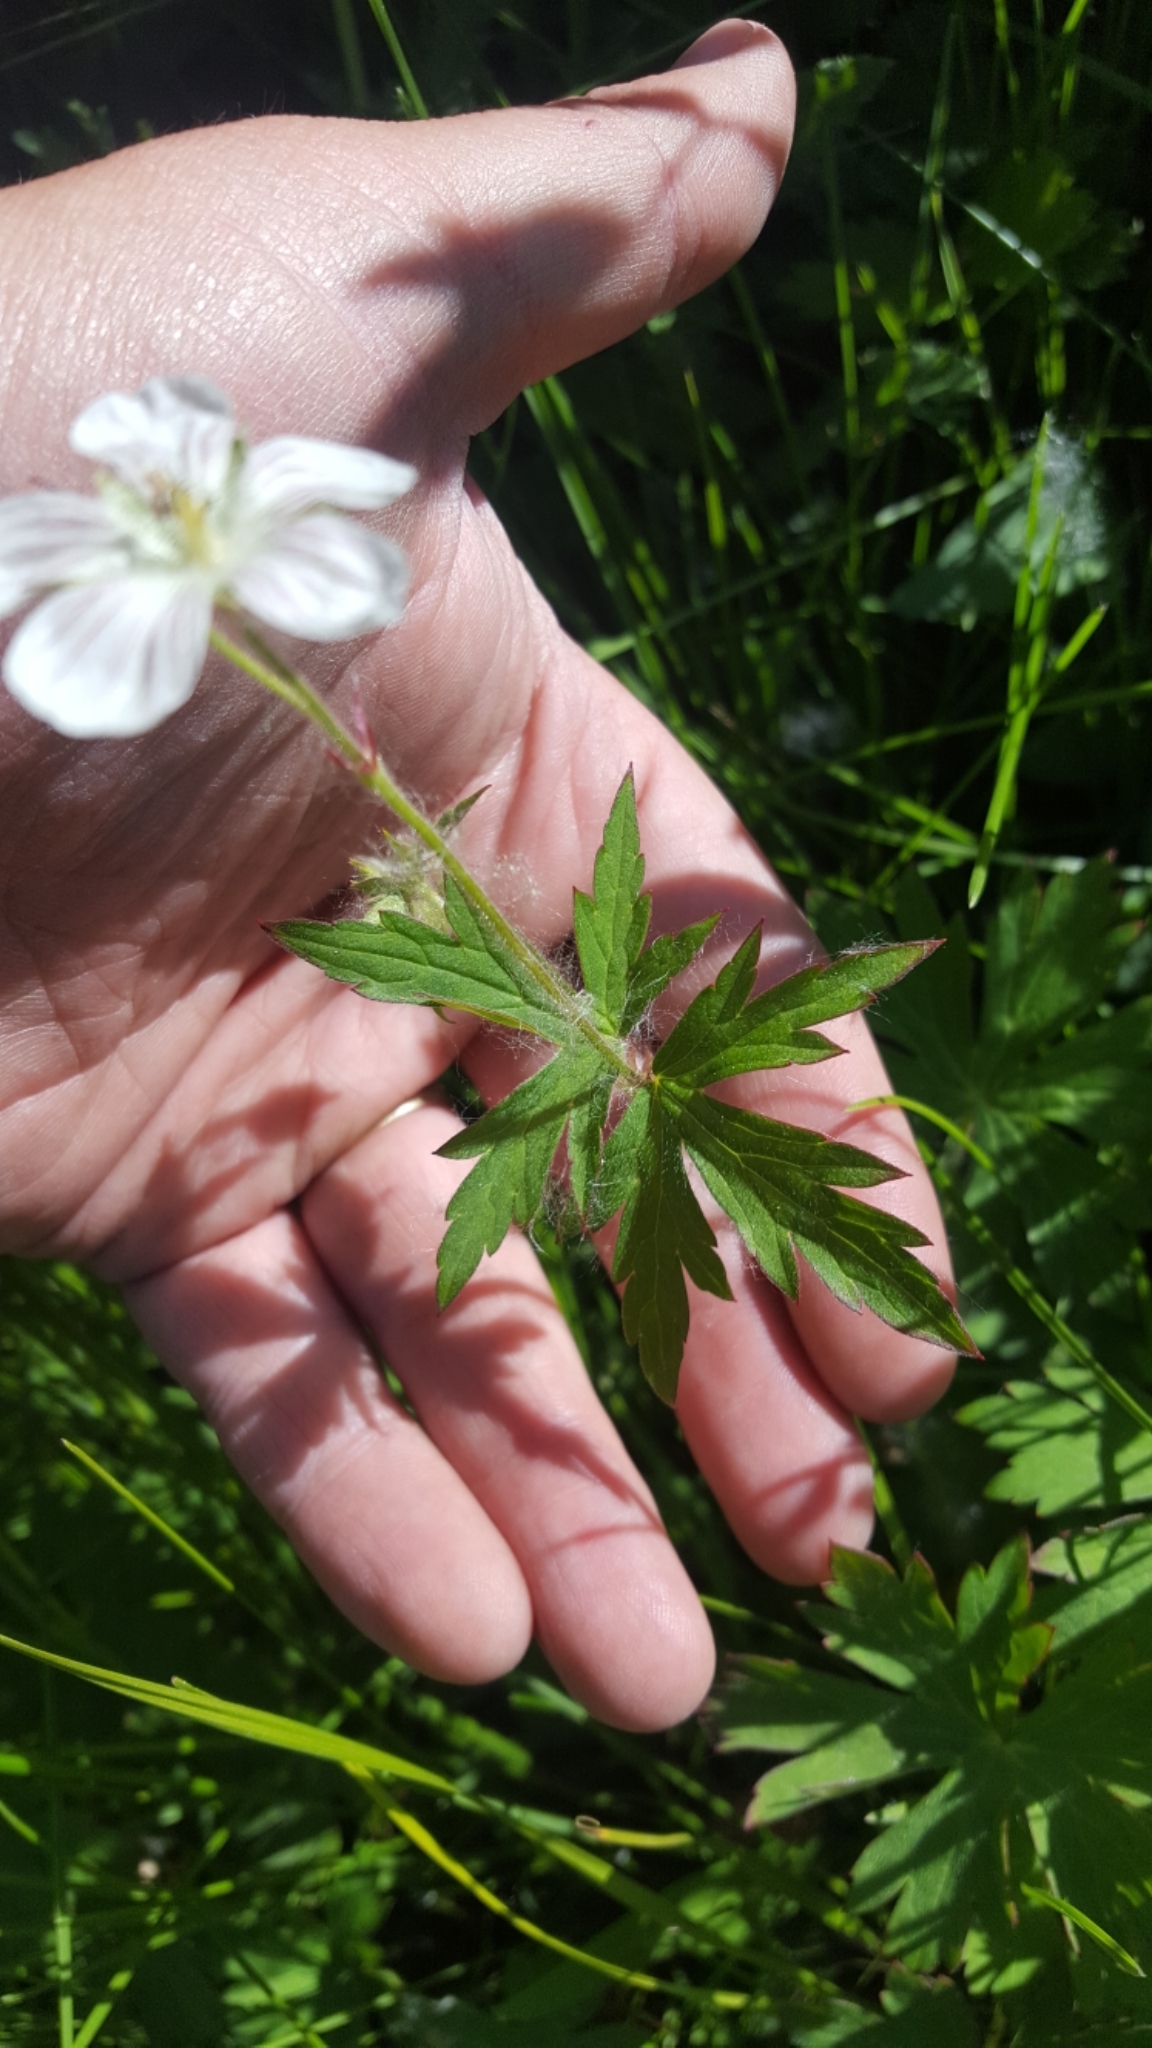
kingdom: Plantae
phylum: Tracheophyta
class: Magnoliopsida
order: Geraniales
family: Geraniaceae
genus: Geranium
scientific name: Geranium richardsonii
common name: Richardson's crane's-bill
